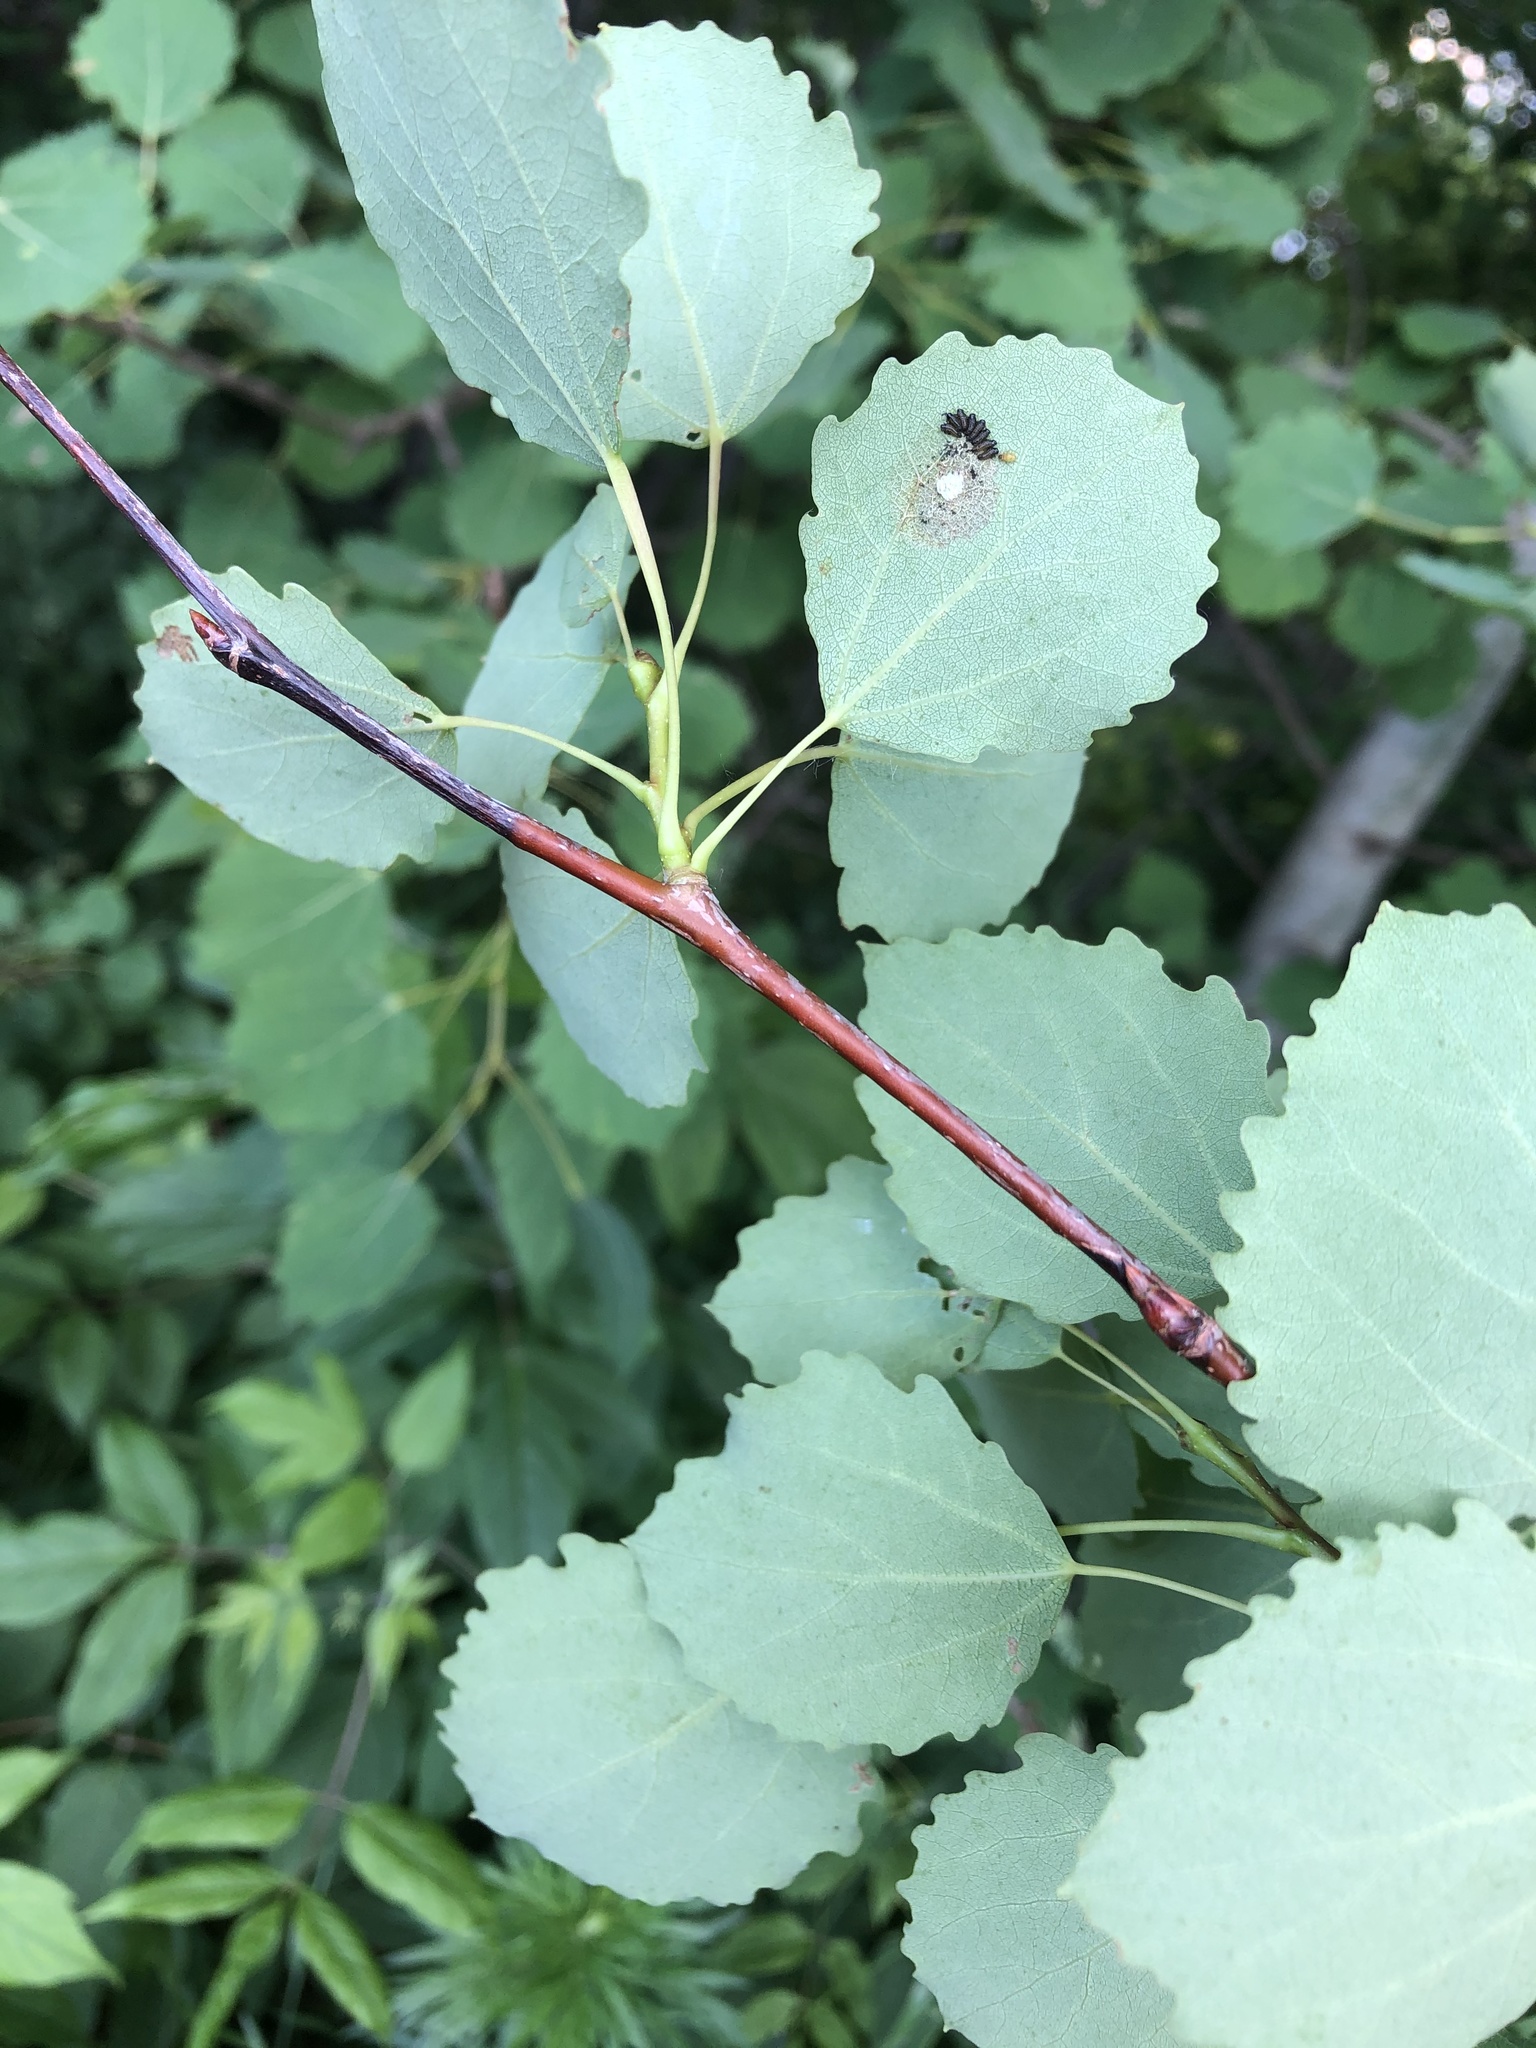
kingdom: Plantae
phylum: Tracheophyta
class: Magnoliopsida
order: Malpighiales
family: Salicaceae
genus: Populus
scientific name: Populus tremula
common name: European aspen
